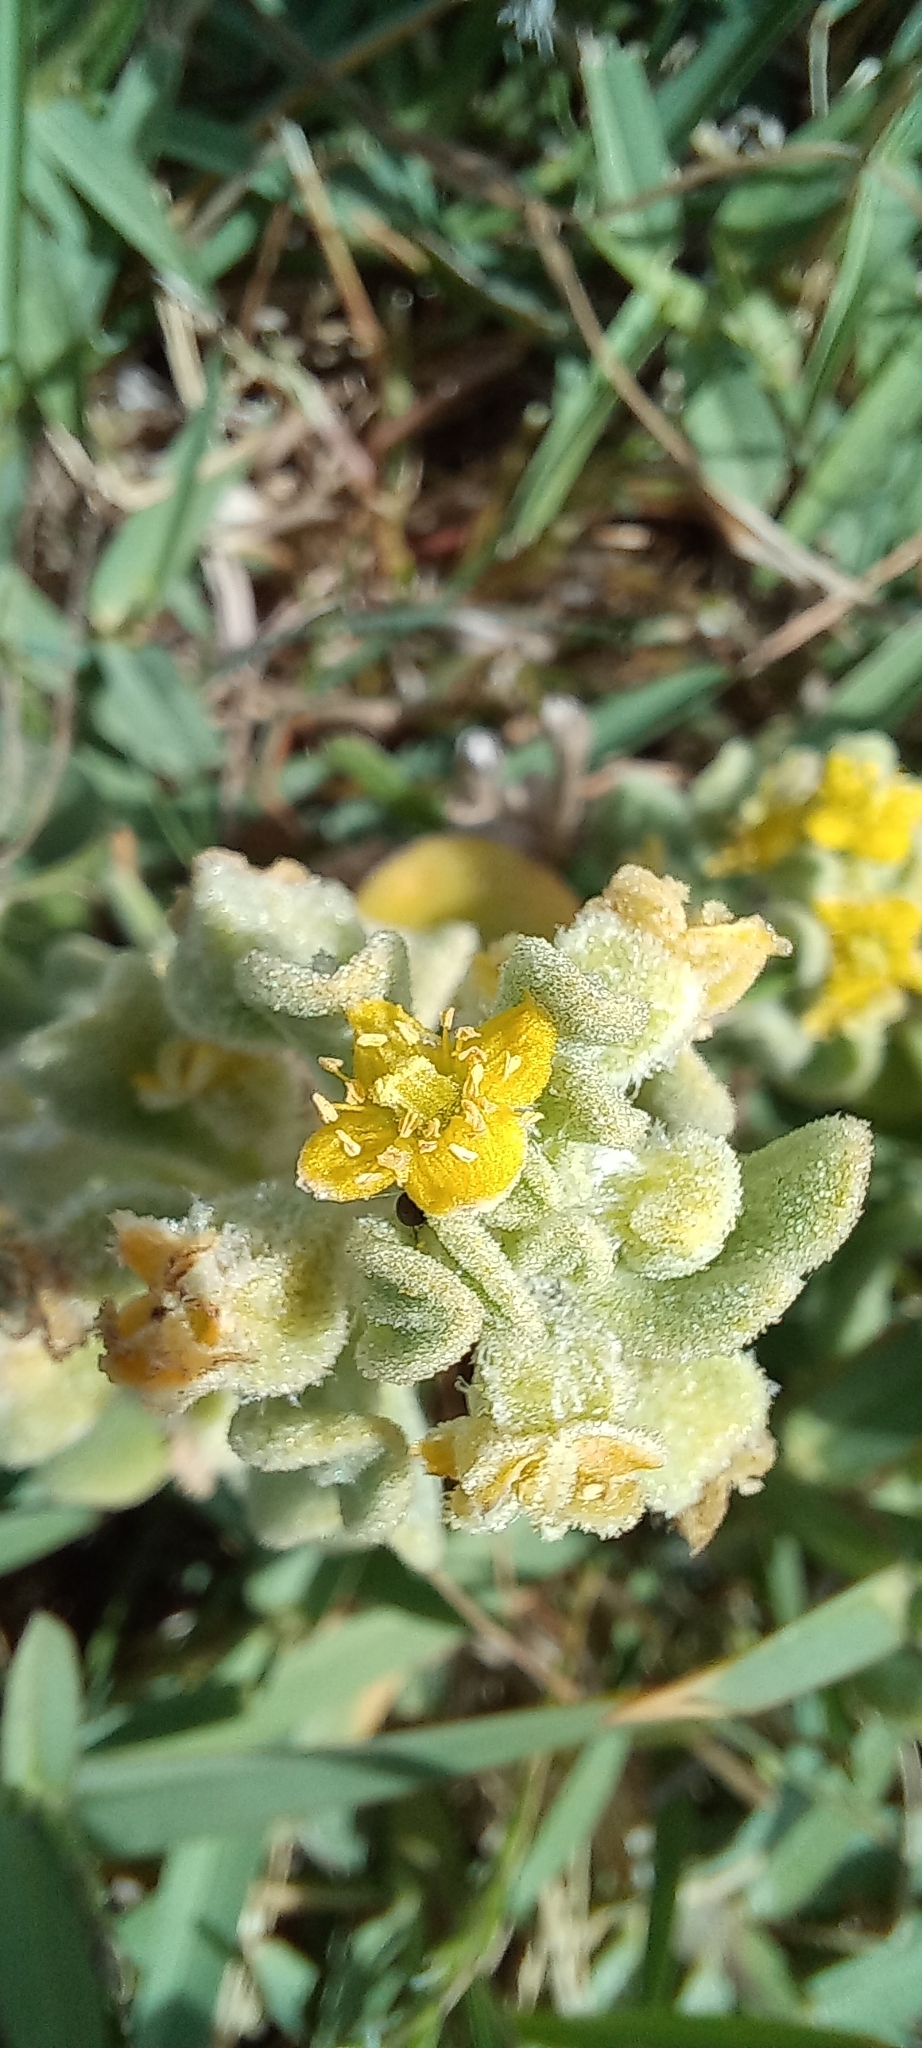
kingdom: Plantae
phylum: Tracheophyta
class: Magnoliopsida
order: Caryophyllales
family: Aizoaceae
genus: Tetragonia
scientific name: Tetragonia decumbens
